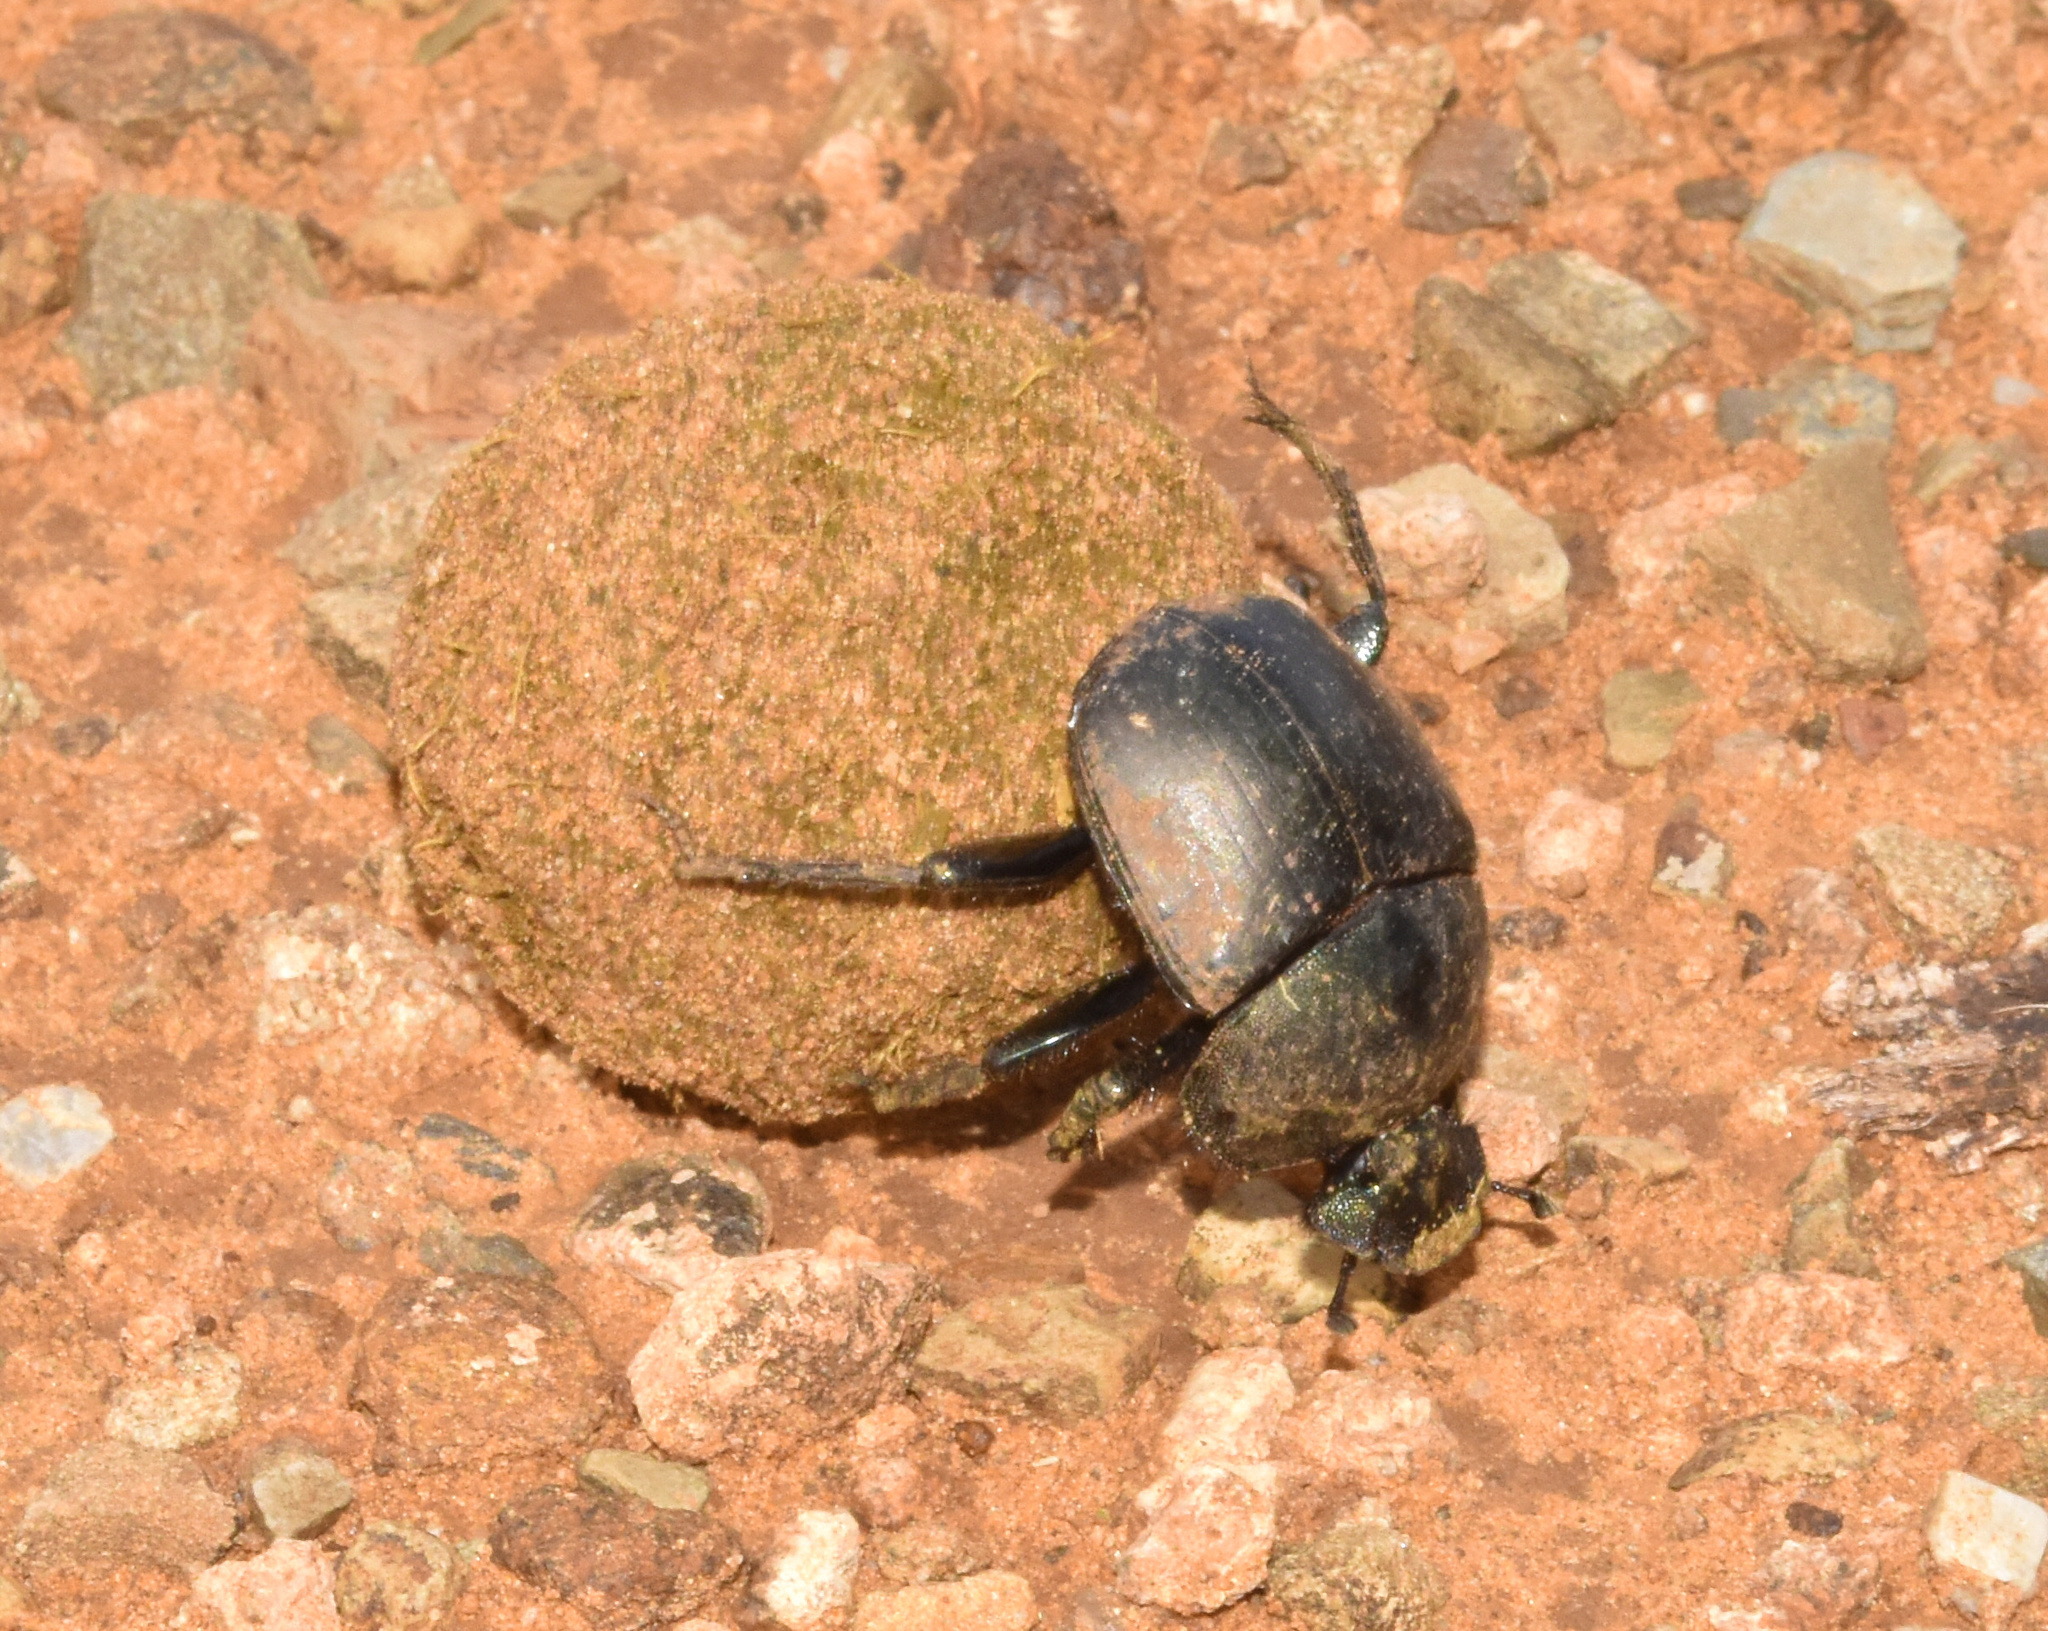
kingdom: Animalia
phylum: Arthropoda
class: Insecta
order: Coleoptera
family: Scarabaeidae
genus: Kheper
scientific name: Kheper nigroaeneus
